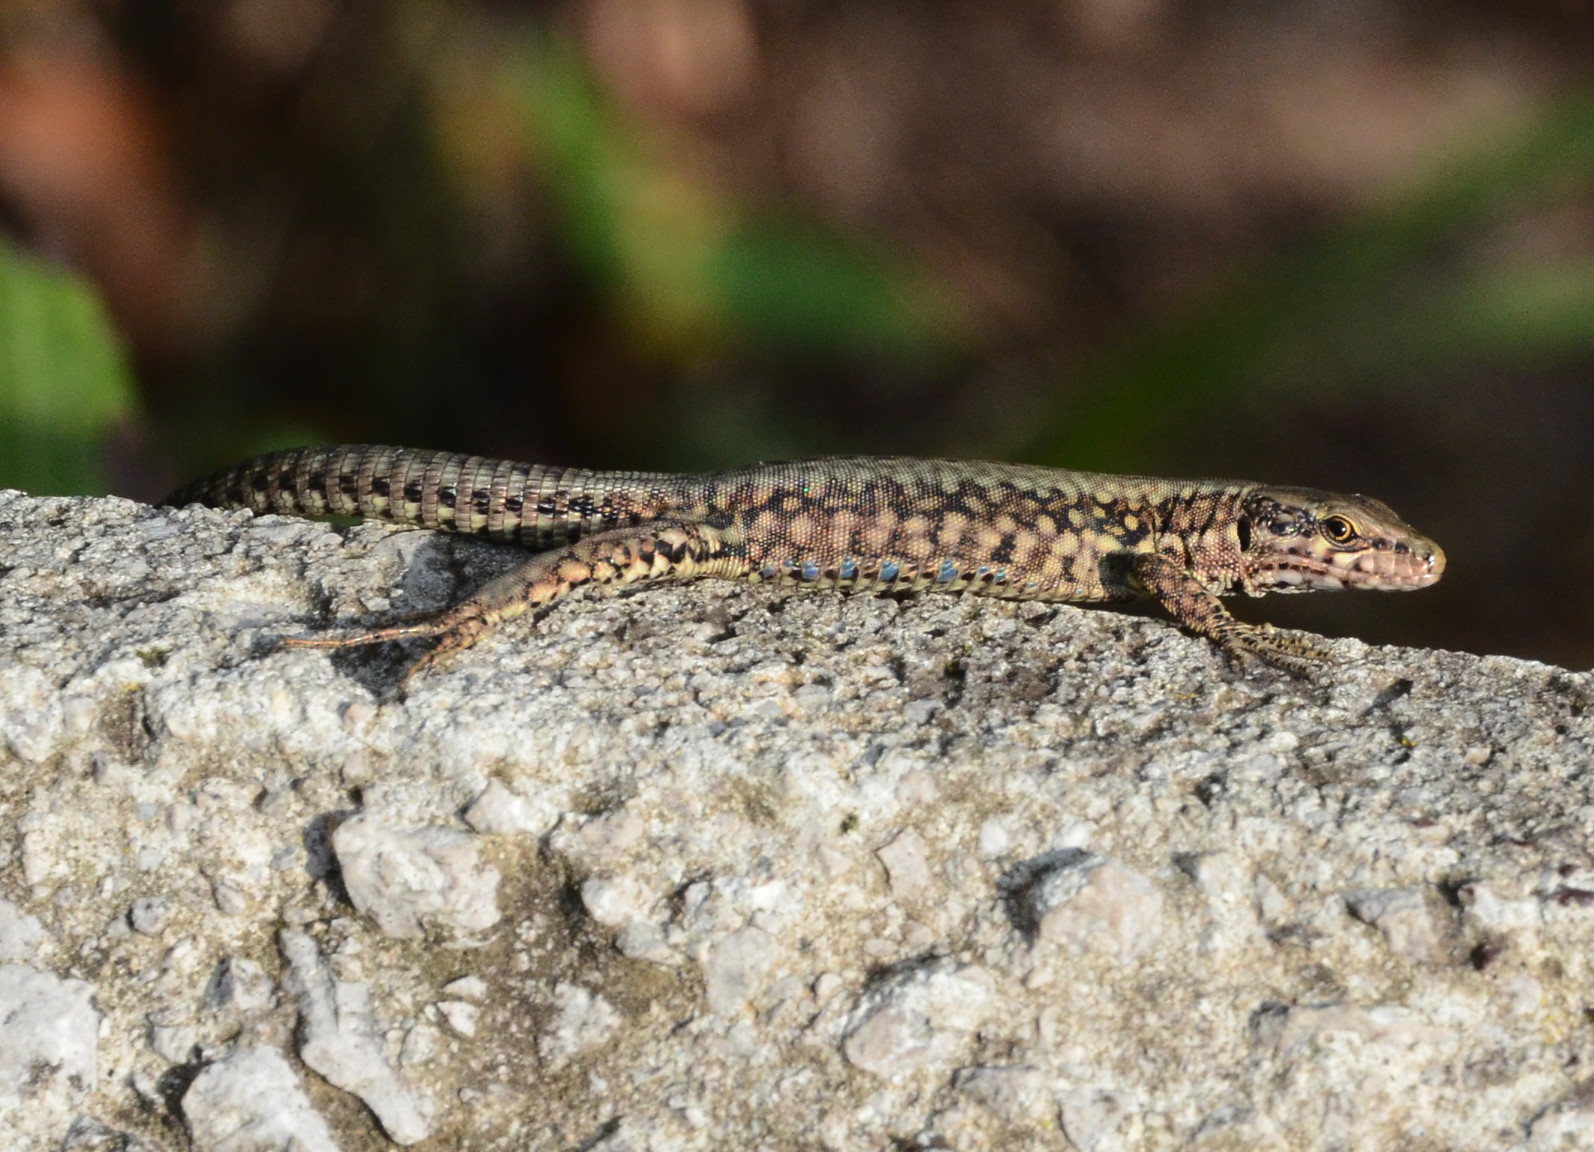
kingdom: Animalia
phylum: Chordata
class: Squamata
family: Lacertidae
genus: Podarcis
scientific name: Podarcis muralis
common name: Common wall lizard
